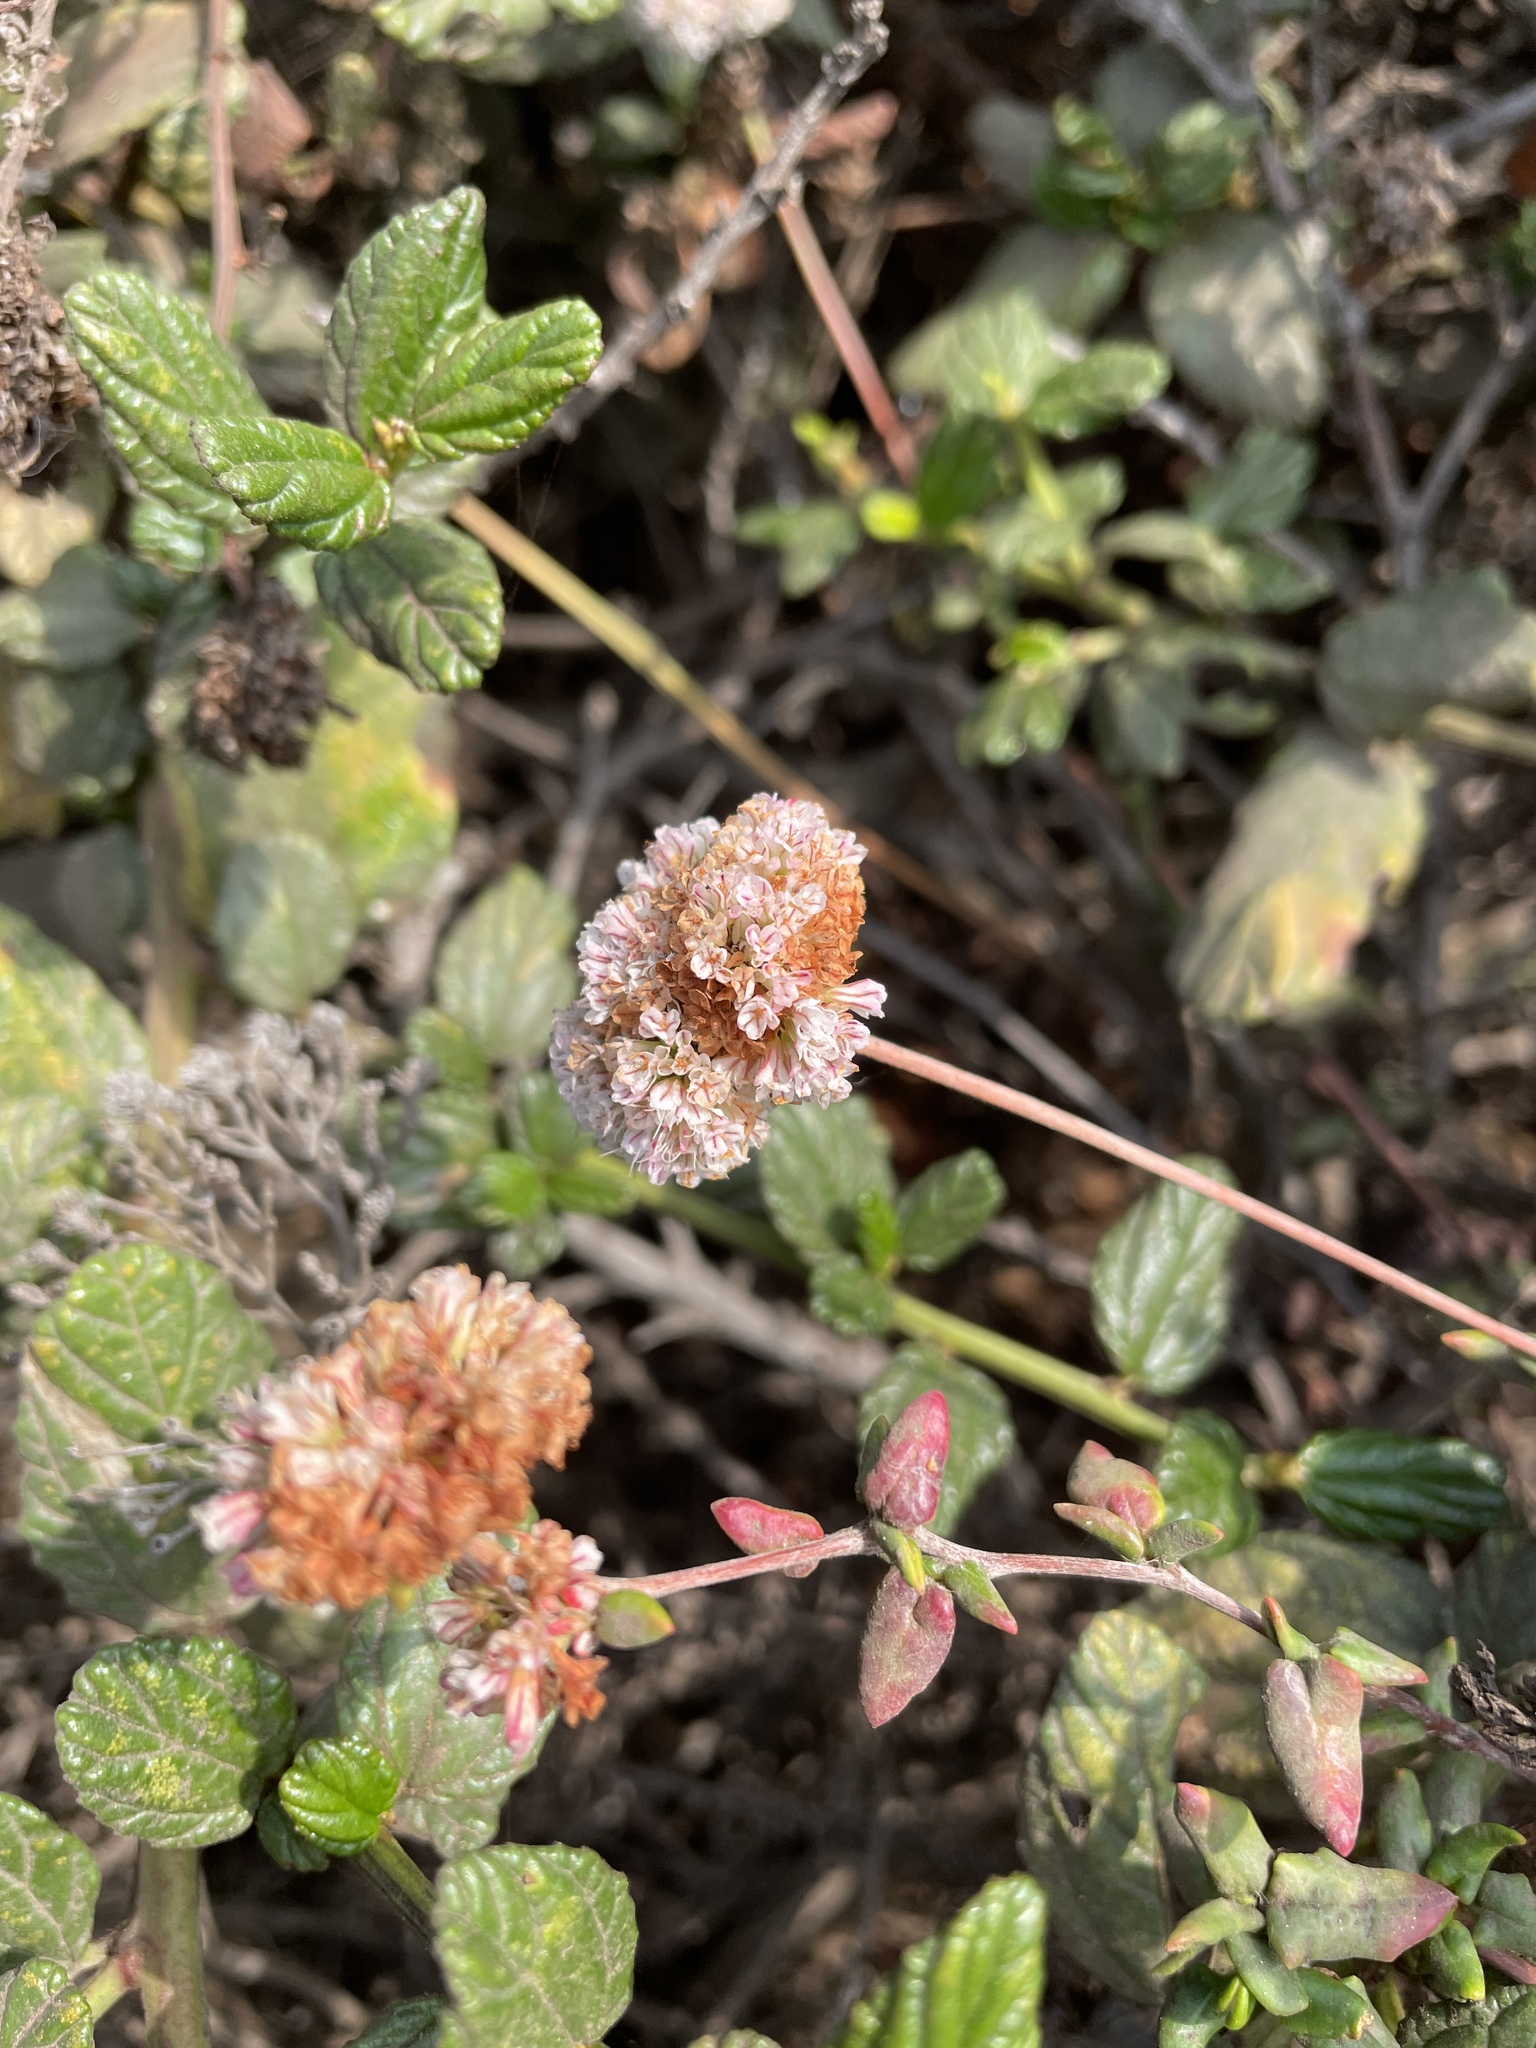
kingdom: Plantae
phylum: Tracheophyta
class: Magnoliopsida
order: Caryophyllales
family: Polygonaceae
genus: Eriogonum
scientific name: Eriogonum parvifolium
